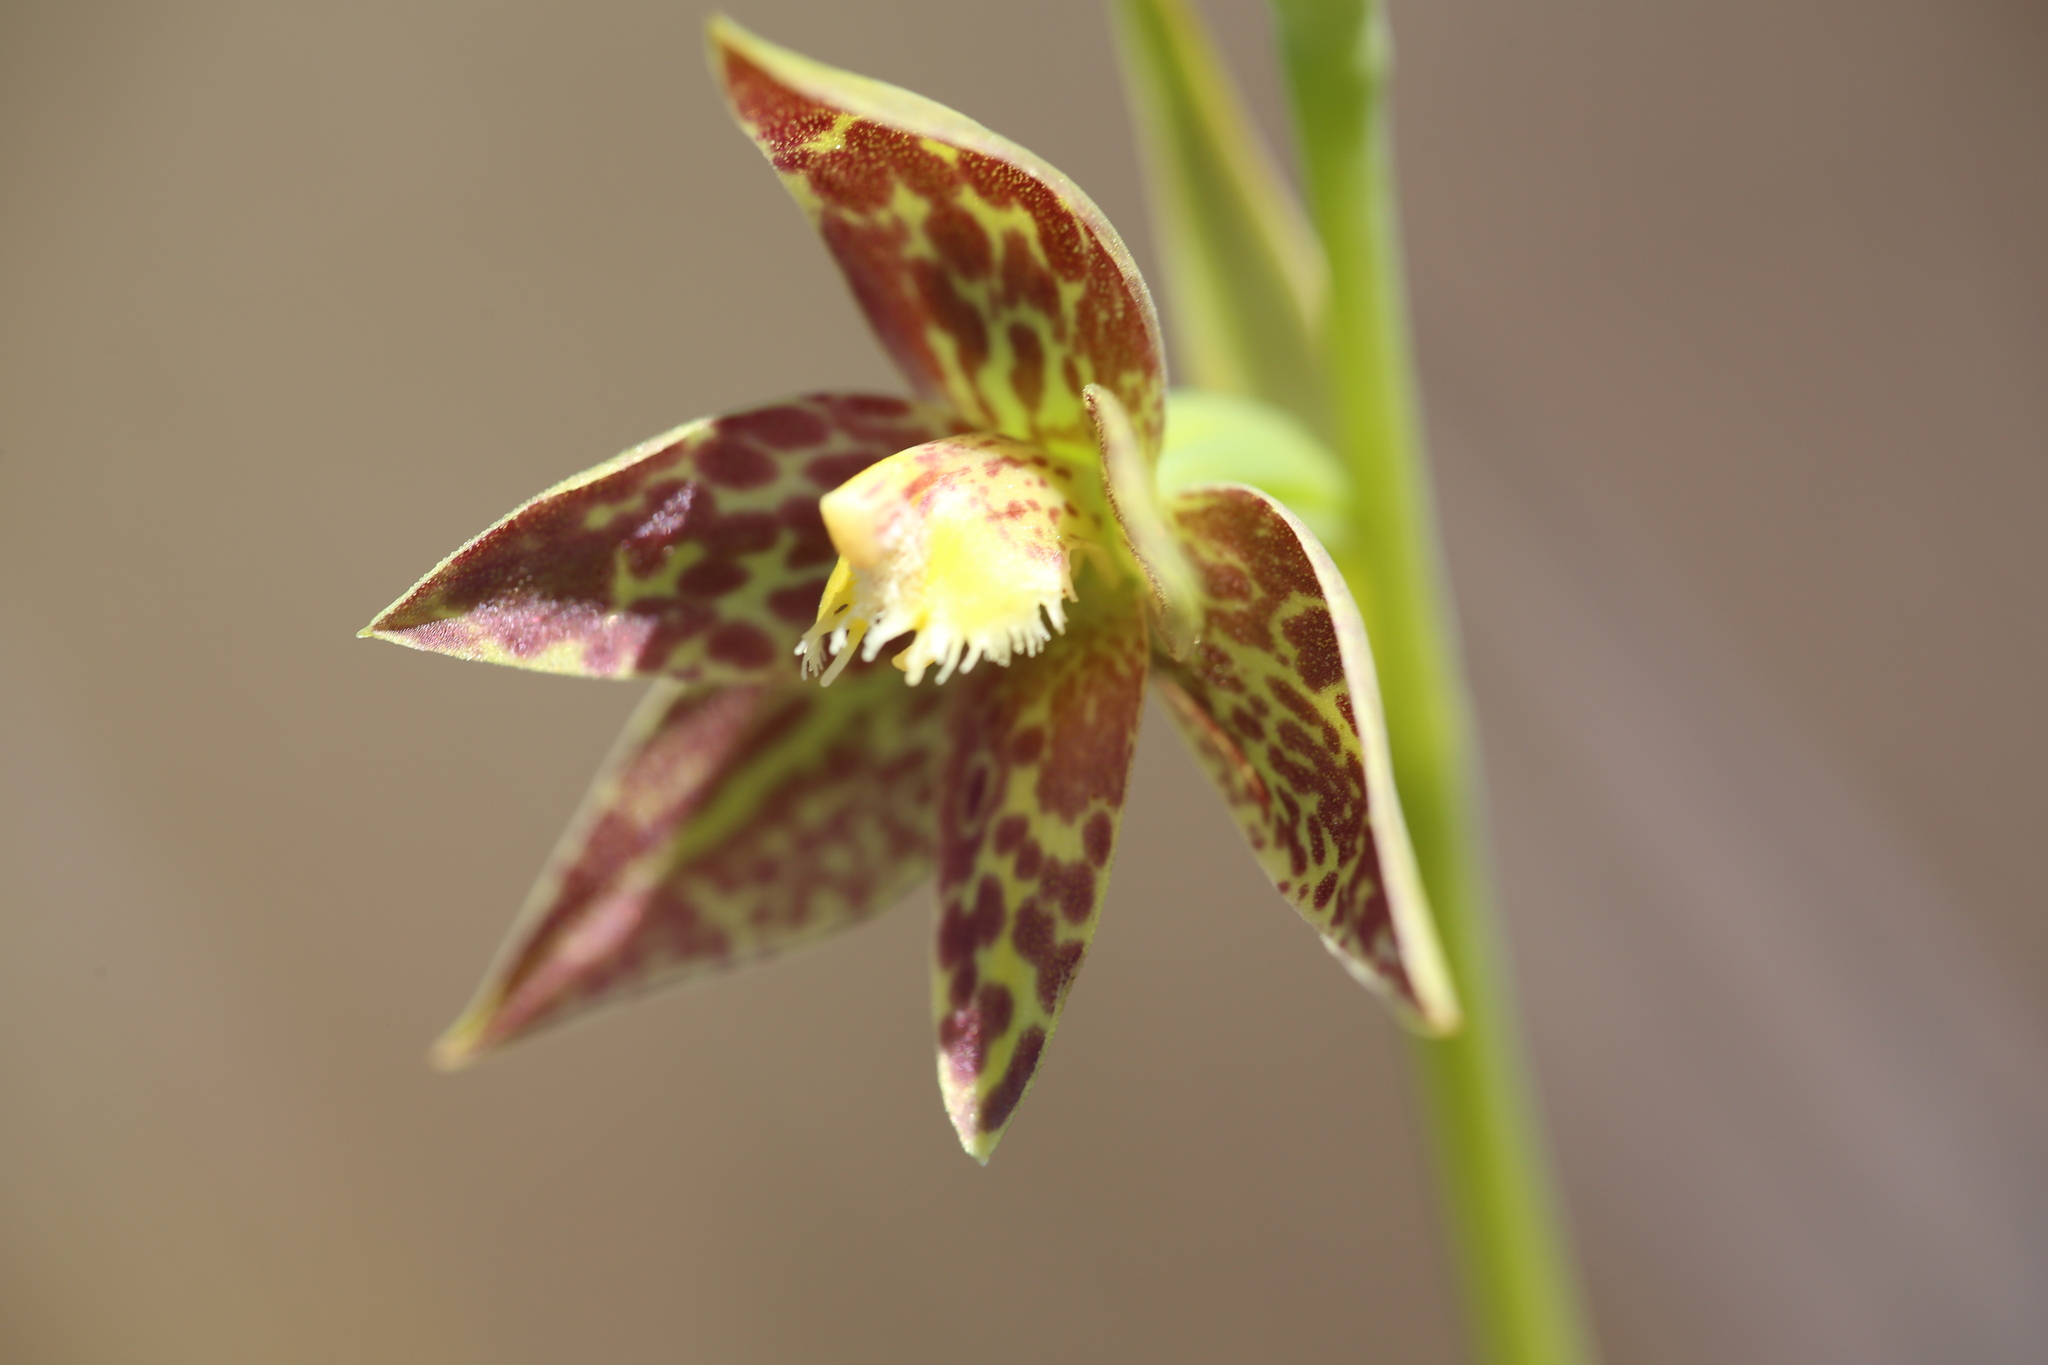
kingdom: Plantae
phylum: Tracheophyta
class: Liliopsida
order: Asparagales
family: Orchidaceae
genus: Thelymitra
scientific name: Thelymitra benthamiana
